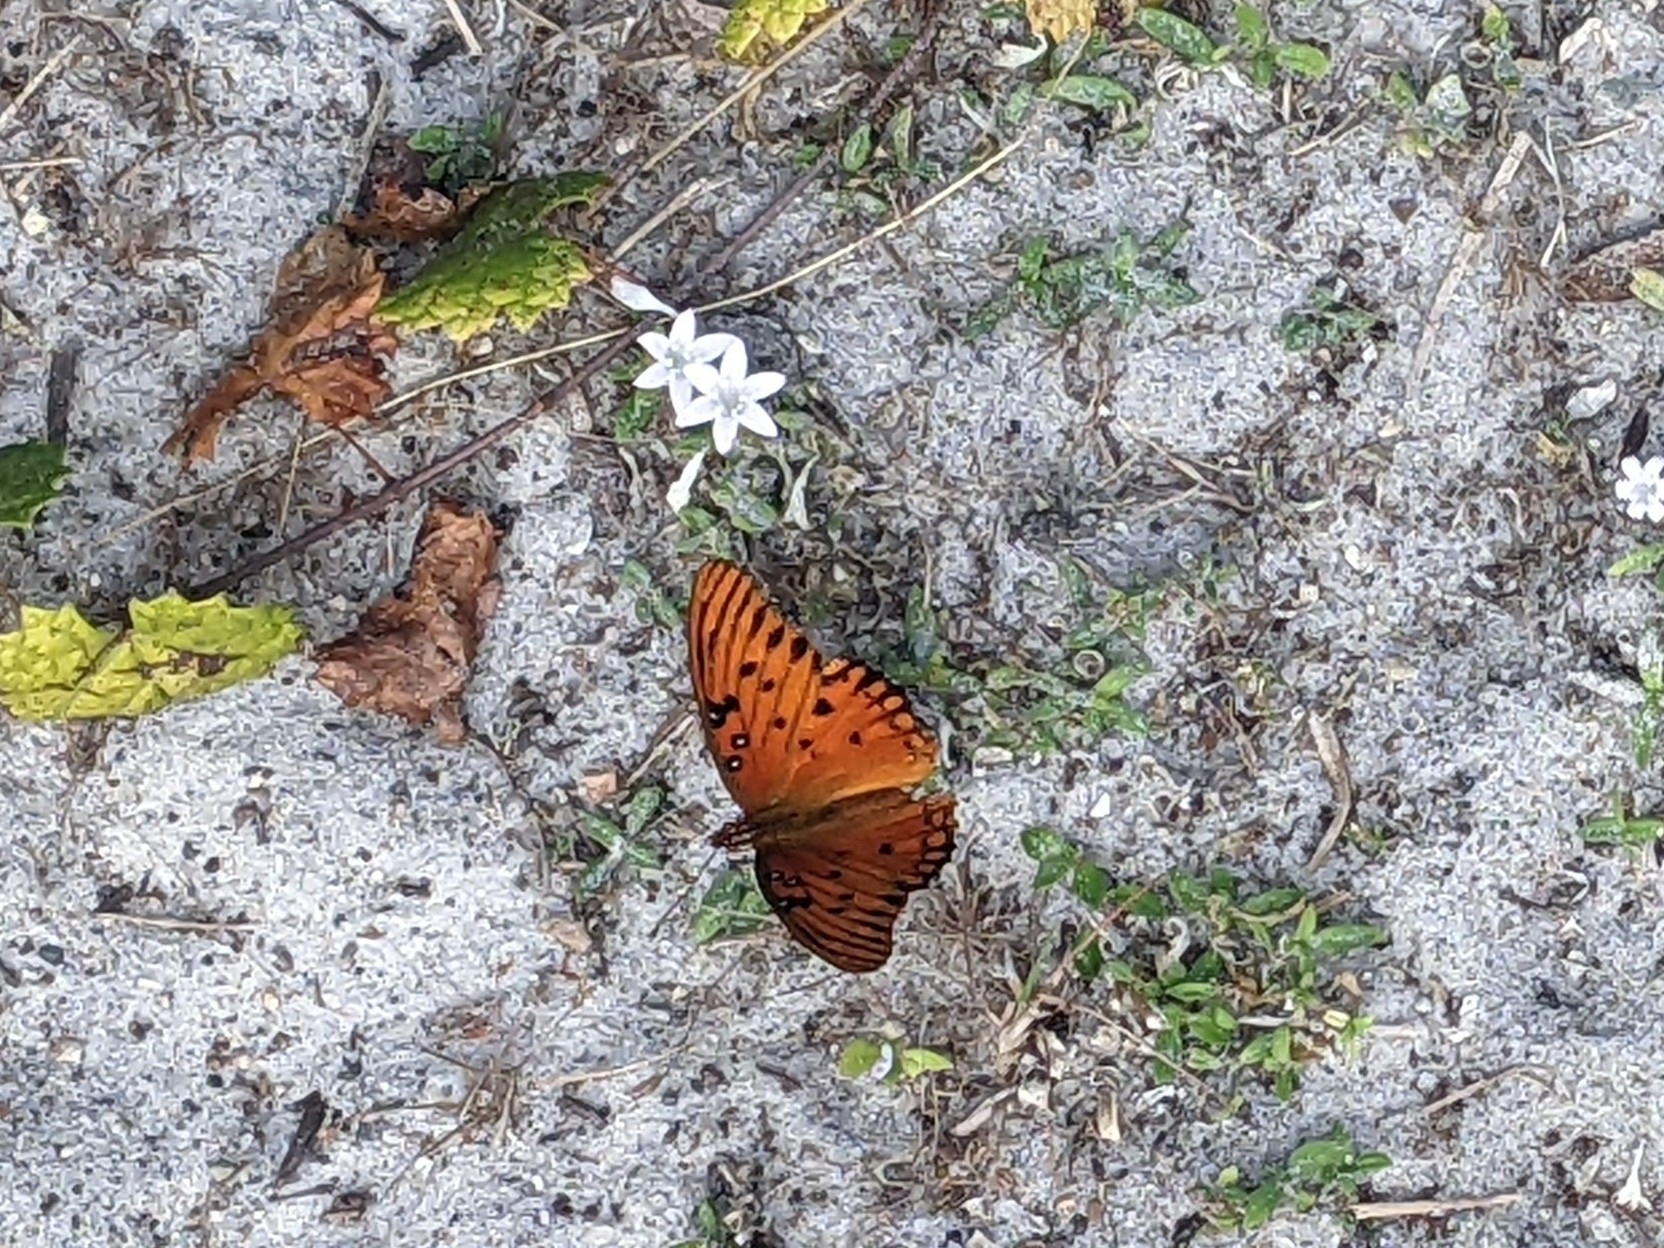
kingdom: Animalia
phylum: Arthropoda
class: Insecta
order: Lepidoptera
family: Nymphalidae
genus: Dione
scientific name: Dione vanillae
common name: Gulf fritillary
